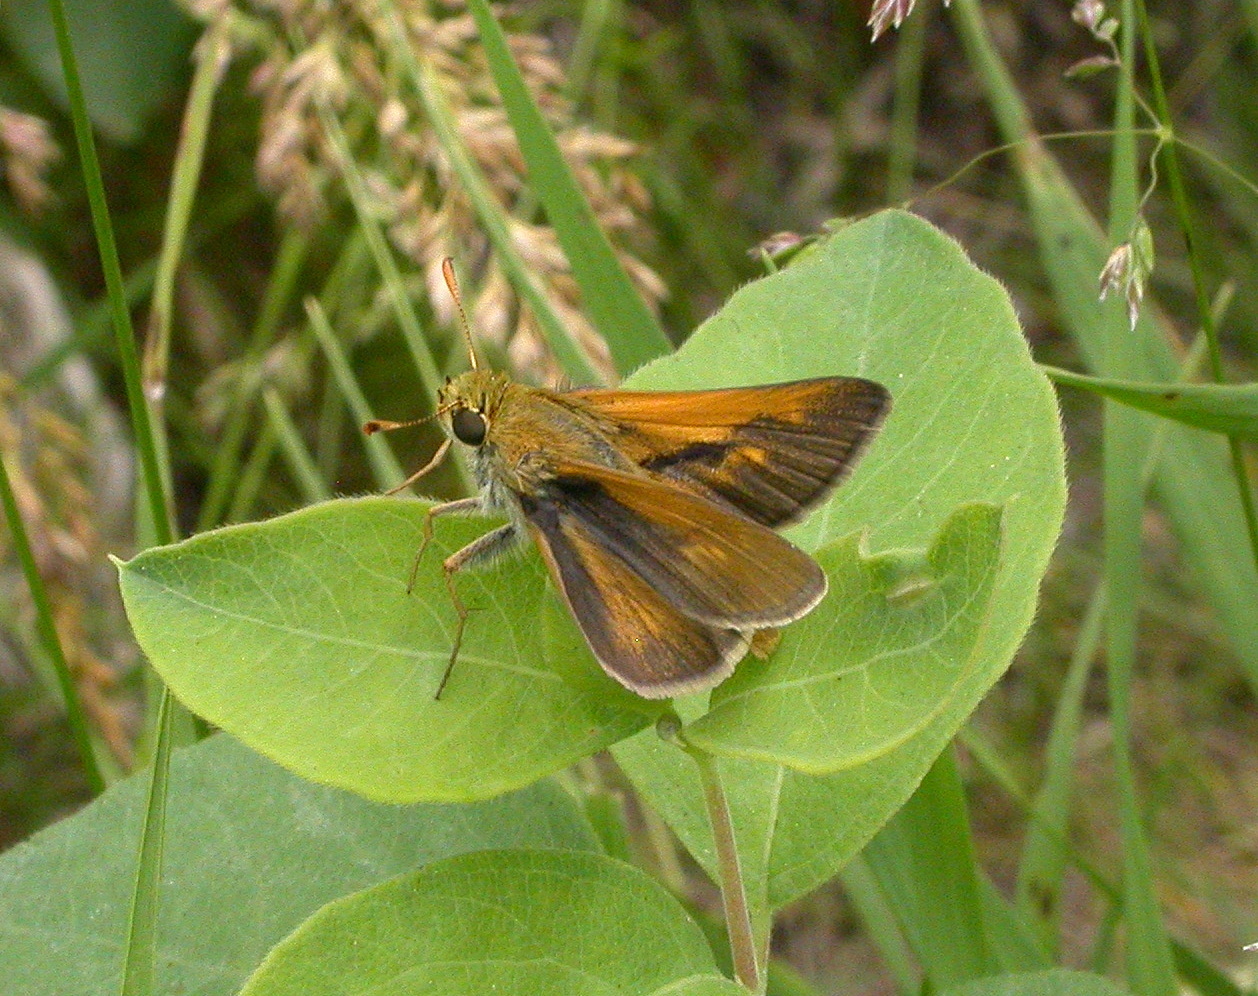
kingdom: Animalia
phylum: Arthropoda
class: Insecta
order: Lepidoptera
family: Hesperiidae
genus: Polites
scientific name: Polites origenes
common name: Crossline skipper
